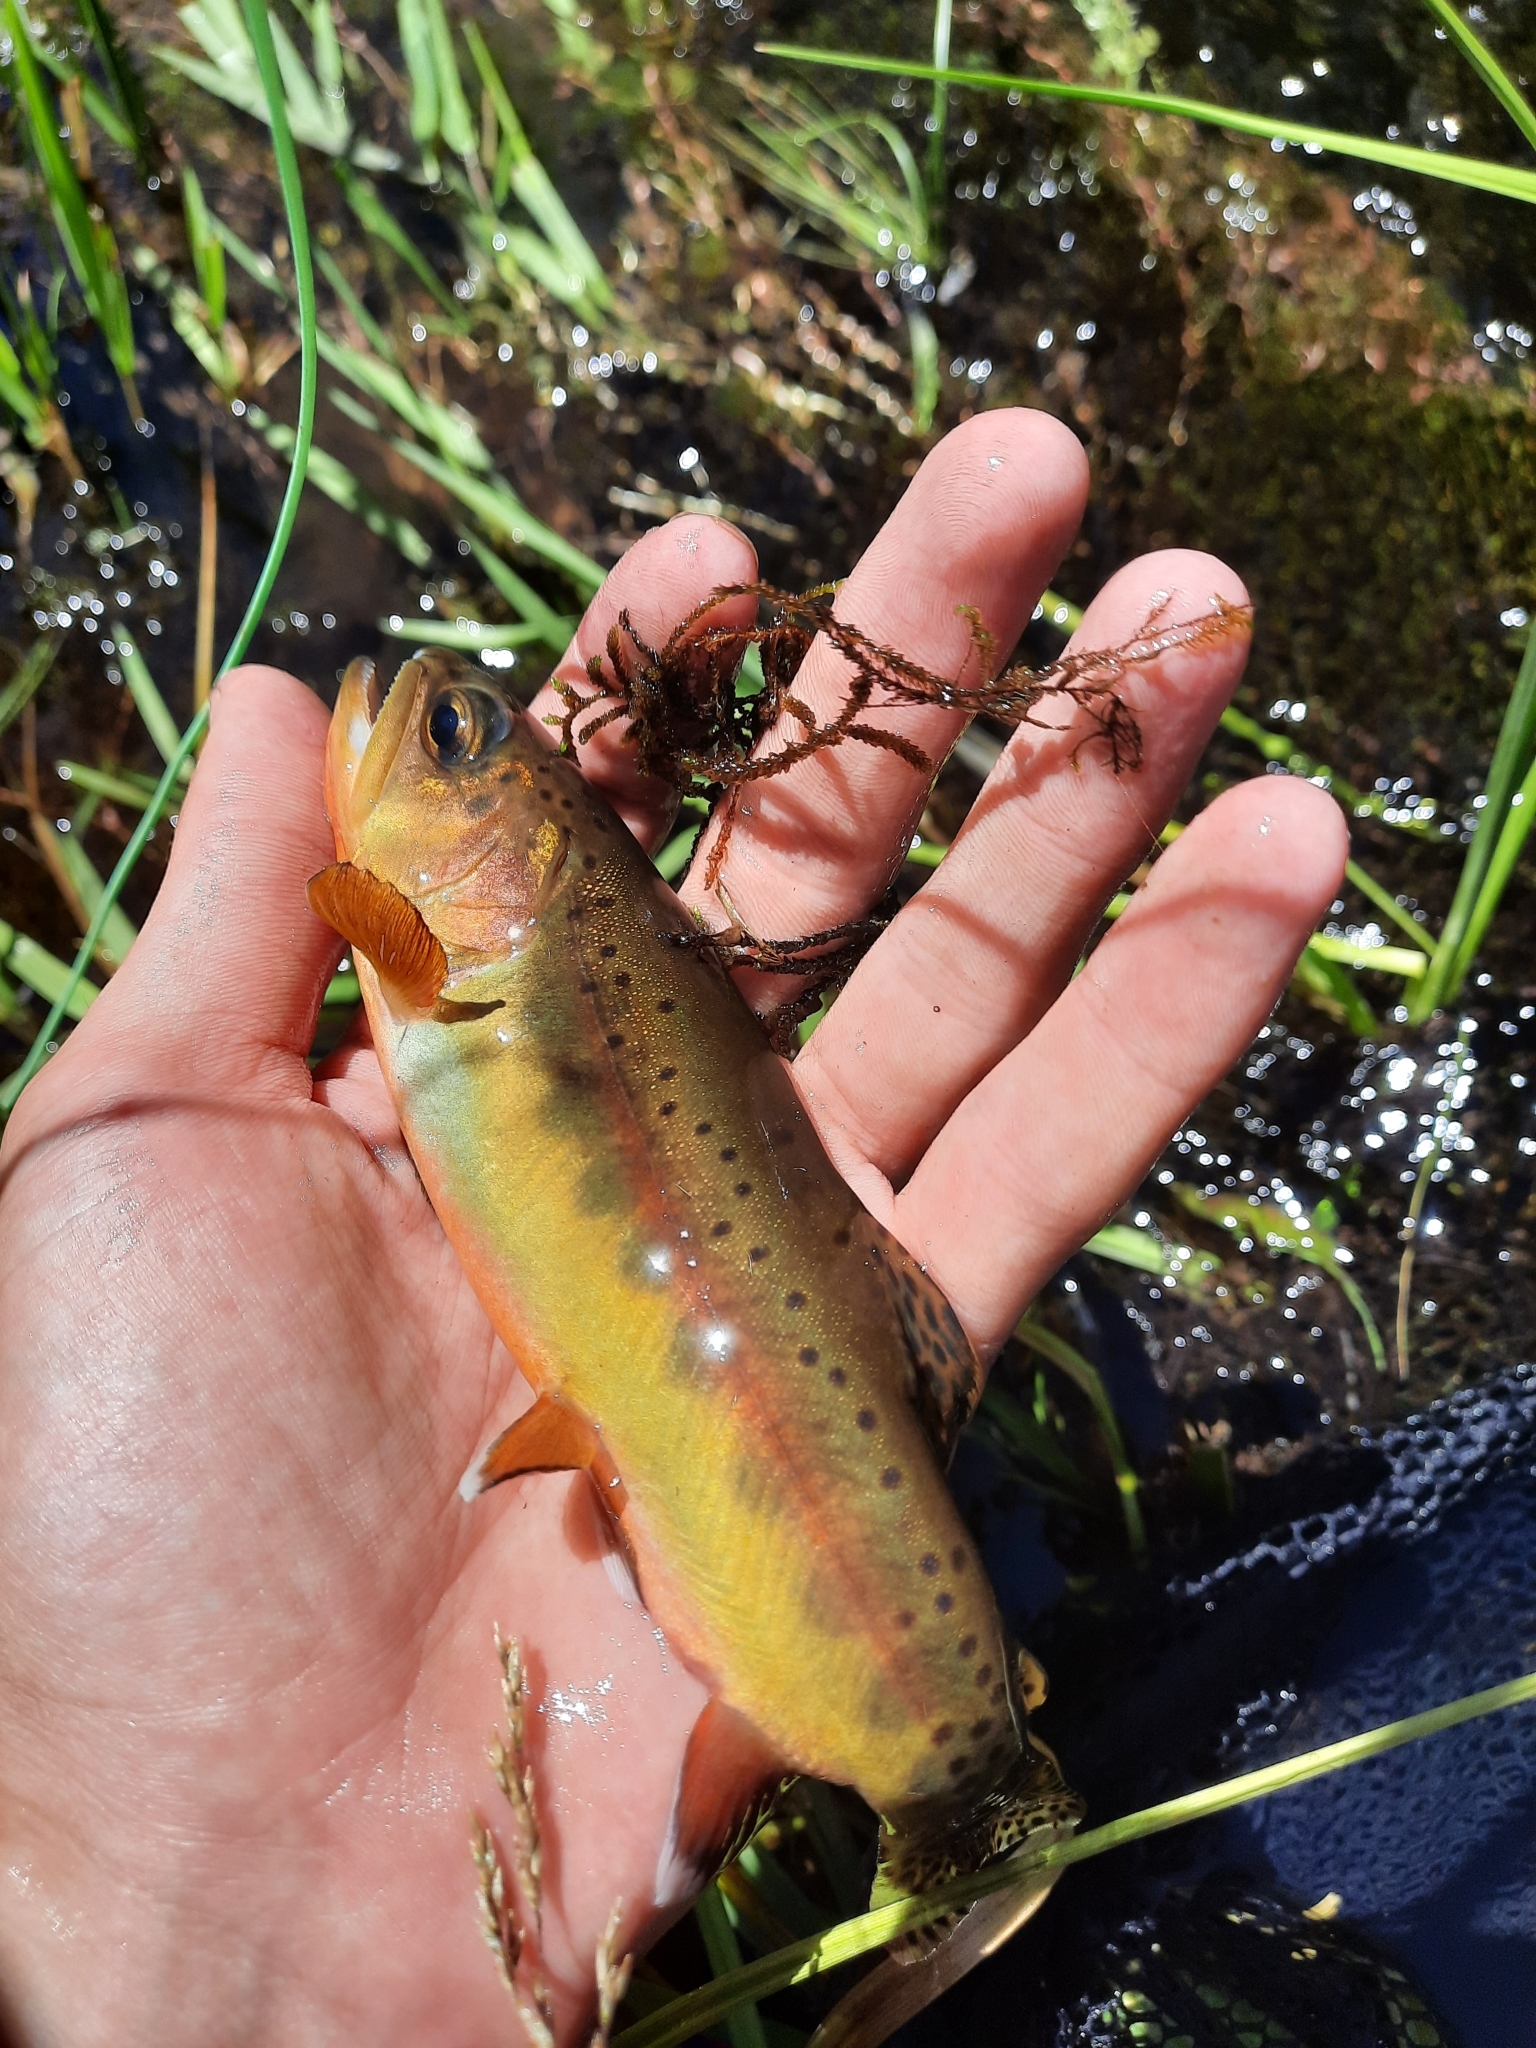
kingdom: Animalia
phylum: Chordata
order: Salmoniformes
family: Salmonidae
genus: Oncorhynchus
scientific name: Oncorhynchus aguabonita
